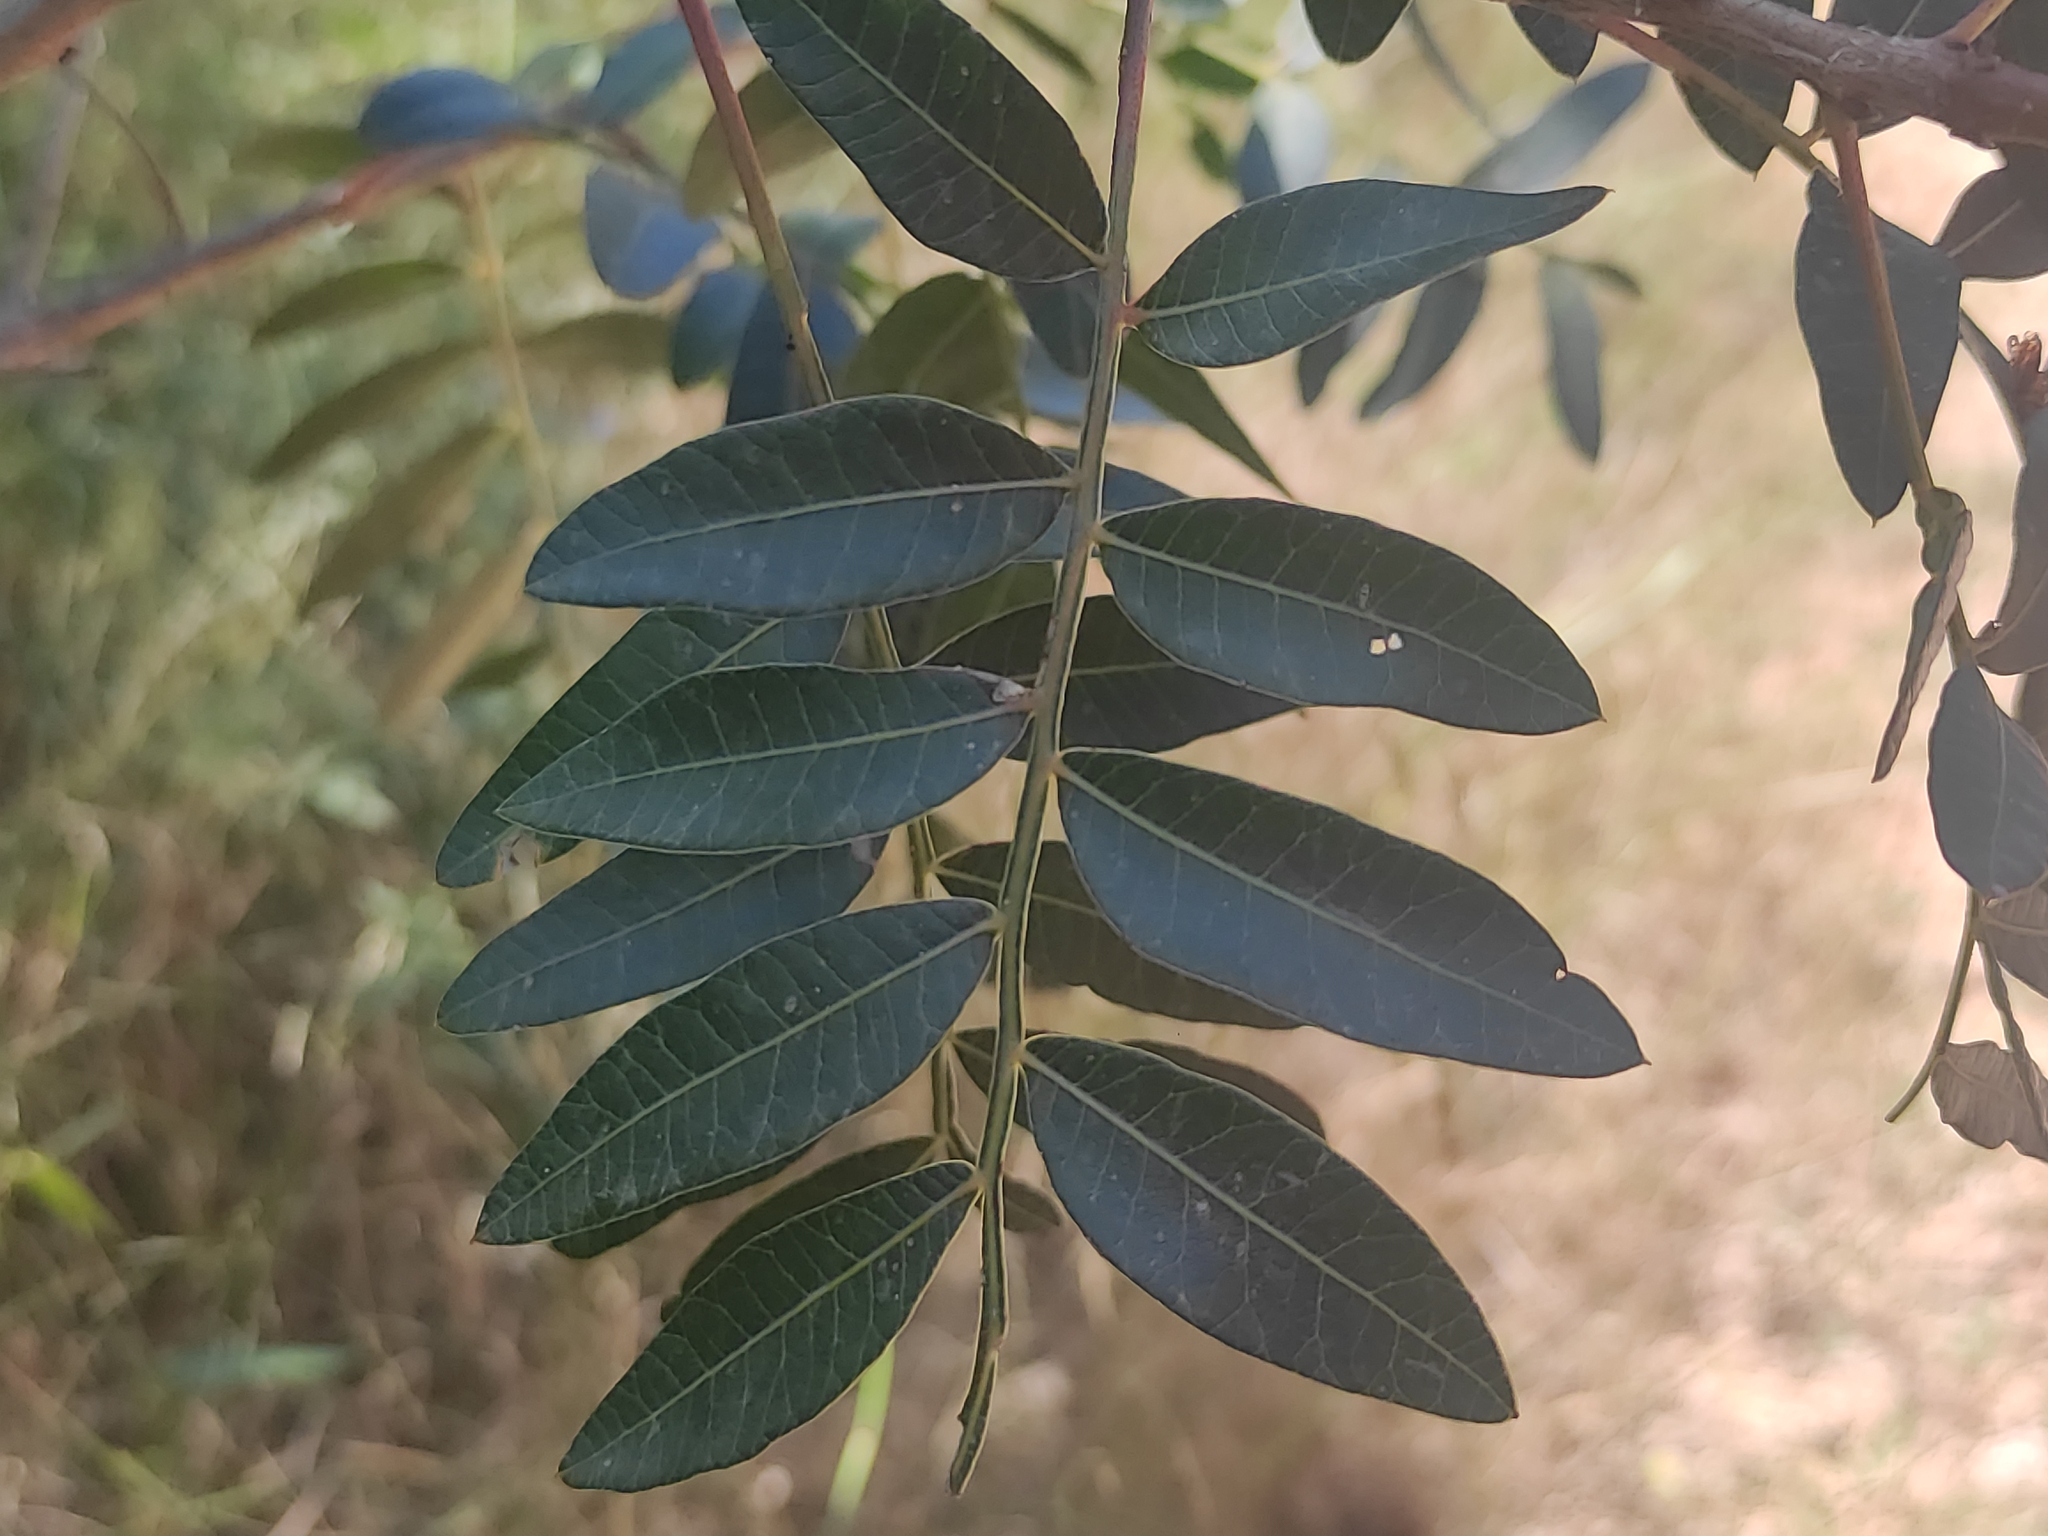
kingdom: Plantae
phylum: Tracheophyta
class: Magnoliopsida
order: Sapindales
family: Anacardiaceae
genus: Pistacia
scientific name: Pistacia saportae
